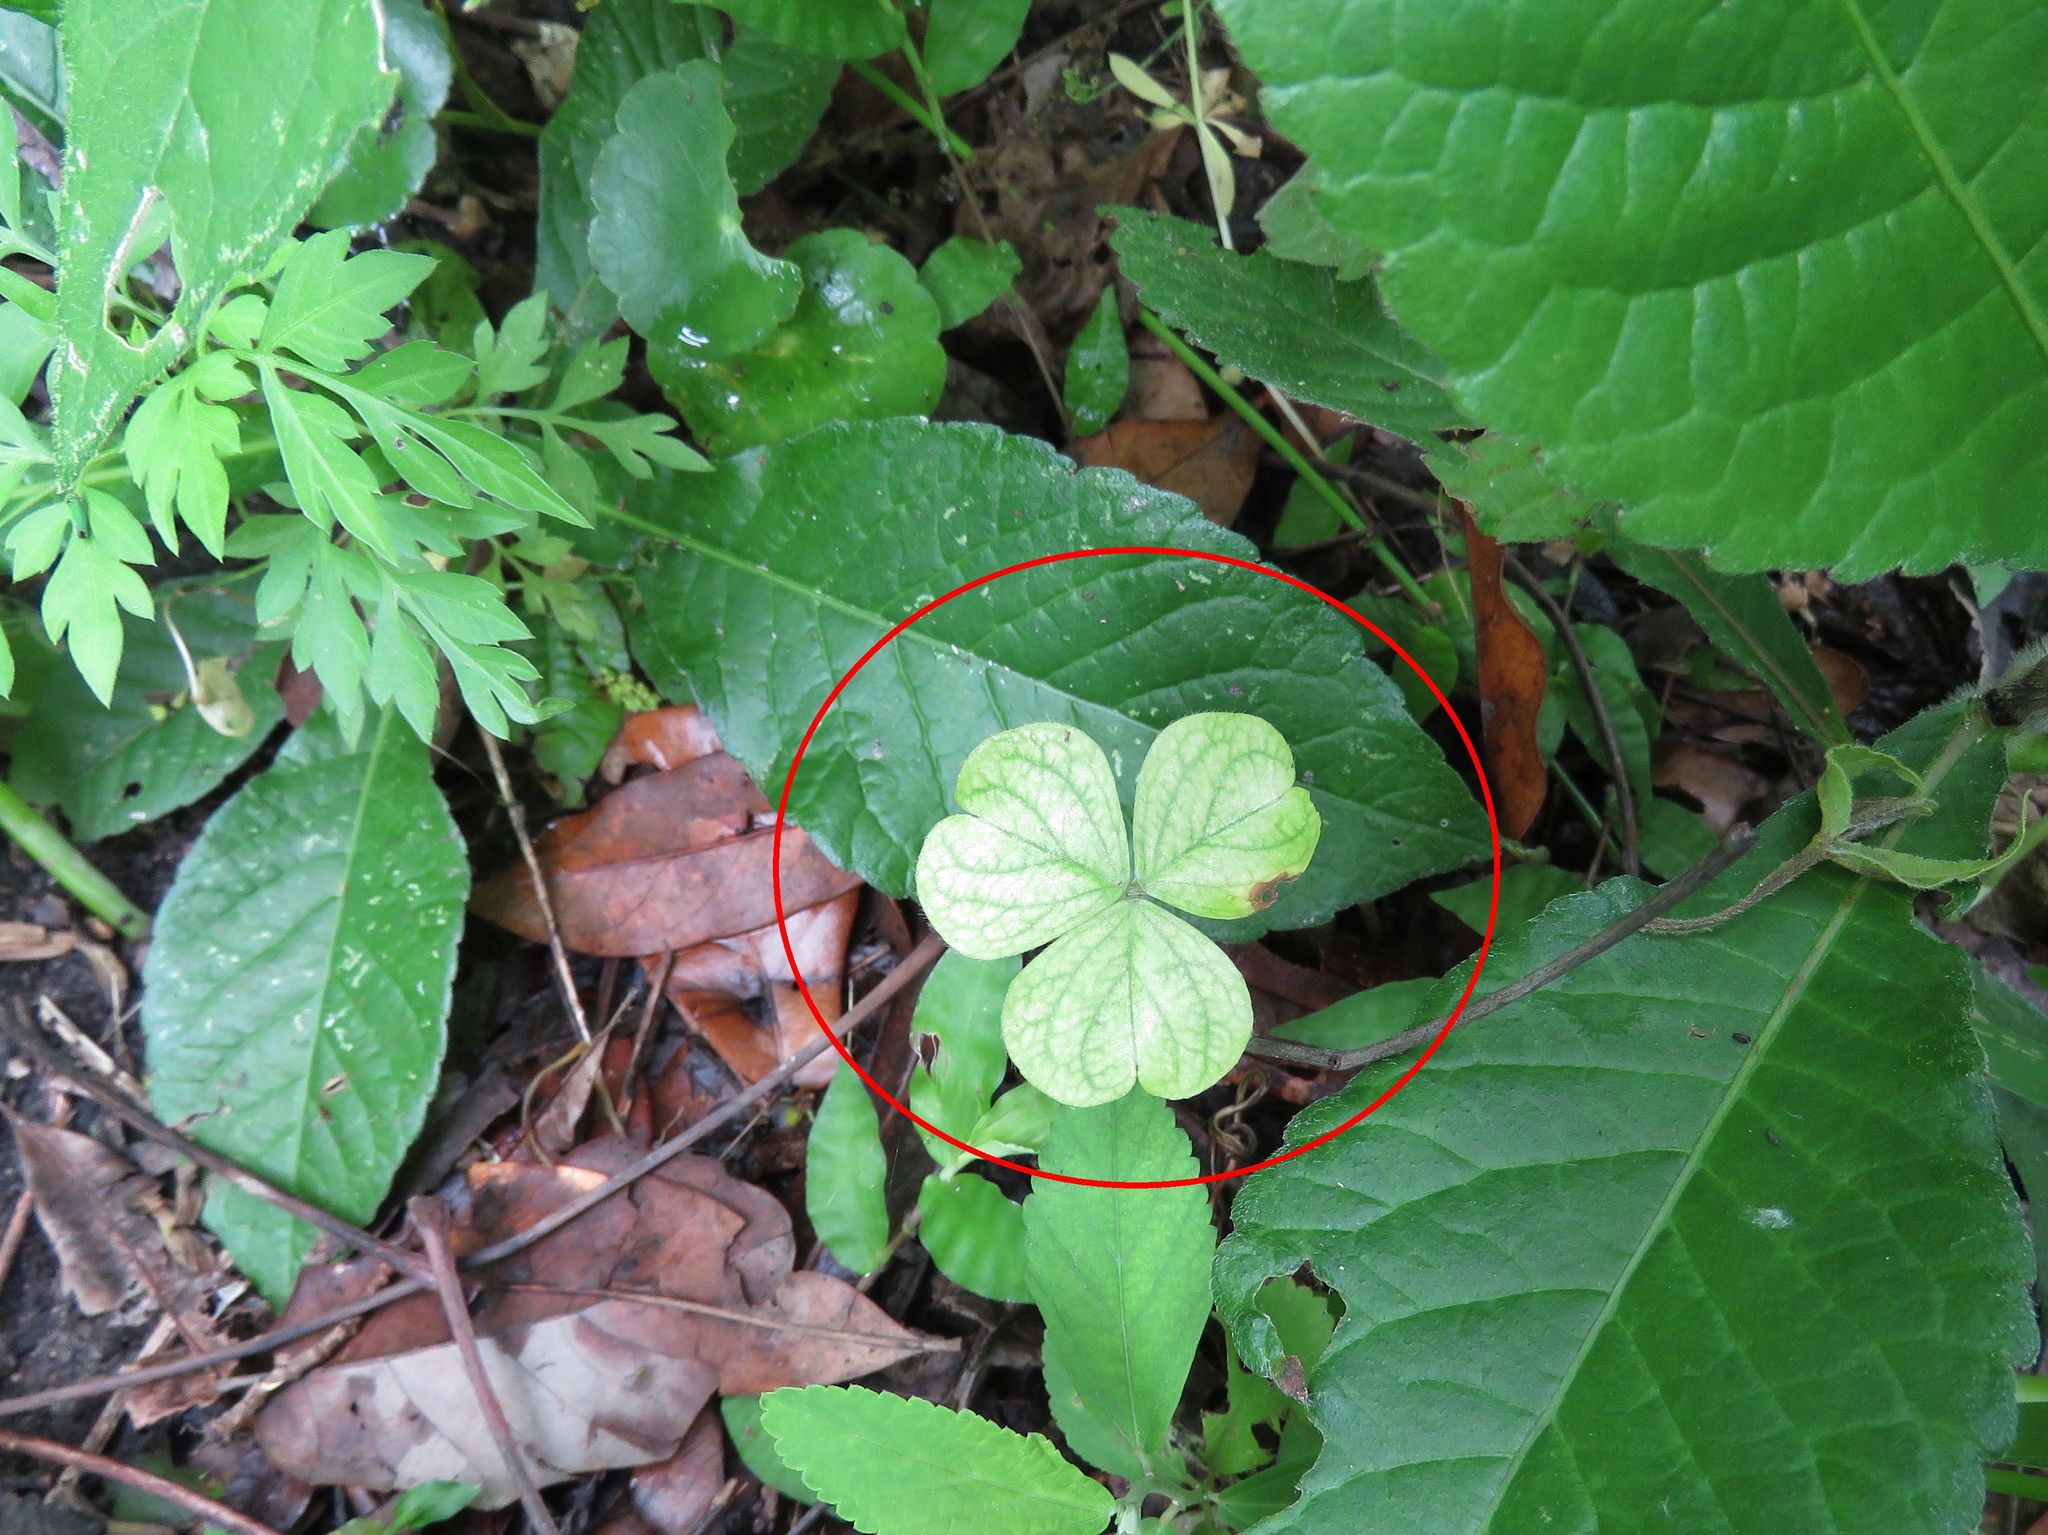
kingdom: Plantae
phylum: Tracheophyta
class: Magnoliopsida
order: Oxalidales
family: Oxalidaceae
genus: Oxalis
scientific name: Oxalis
